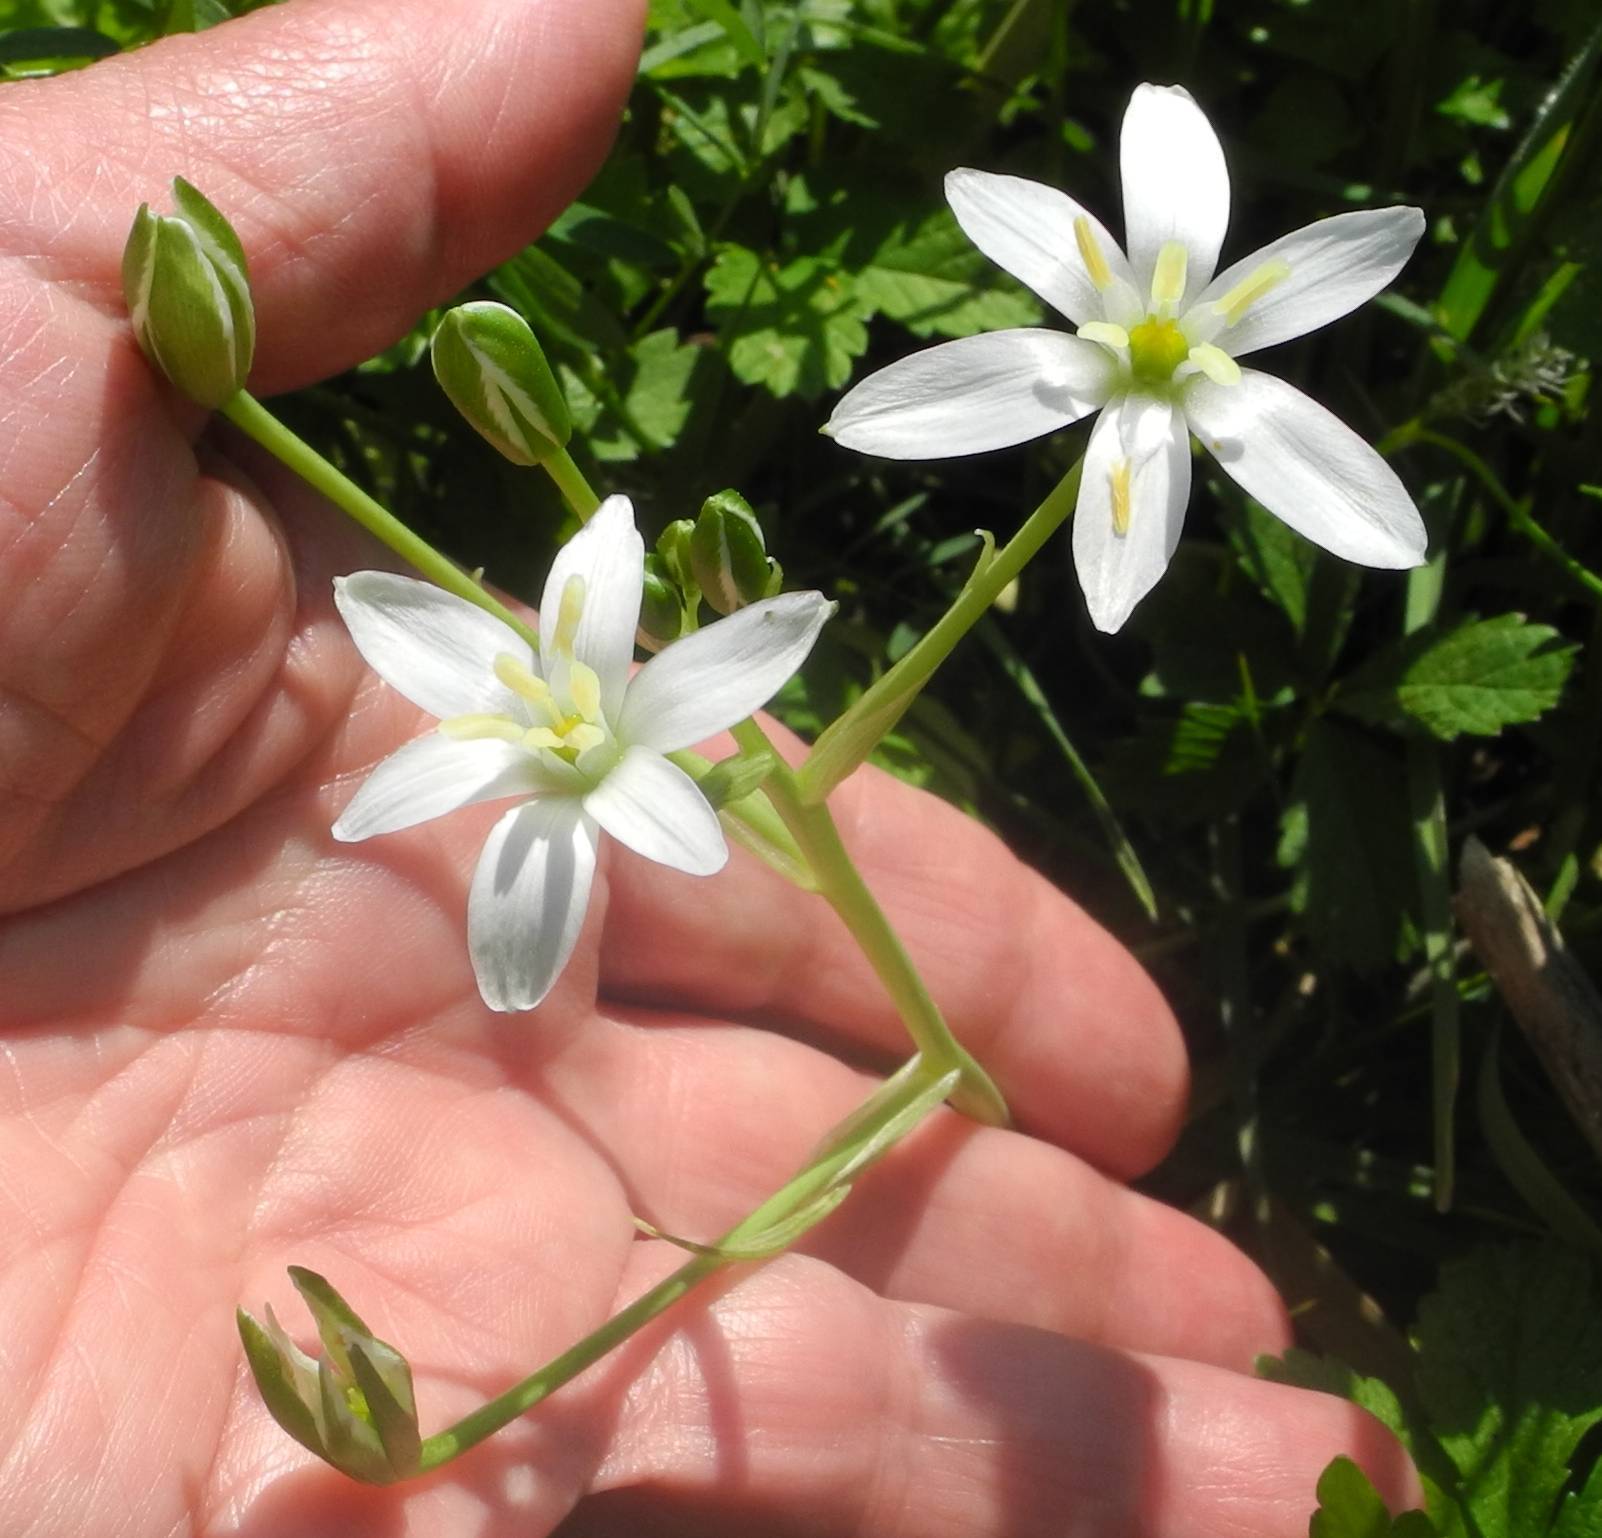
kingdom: Plantae
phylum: Tracheophyta
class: Liliopsida
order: Asparagales
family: Asparagaceae
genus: Ornithogalum
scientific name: Ornithogalum umbellatum
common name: Garden star-of-bethlehem
